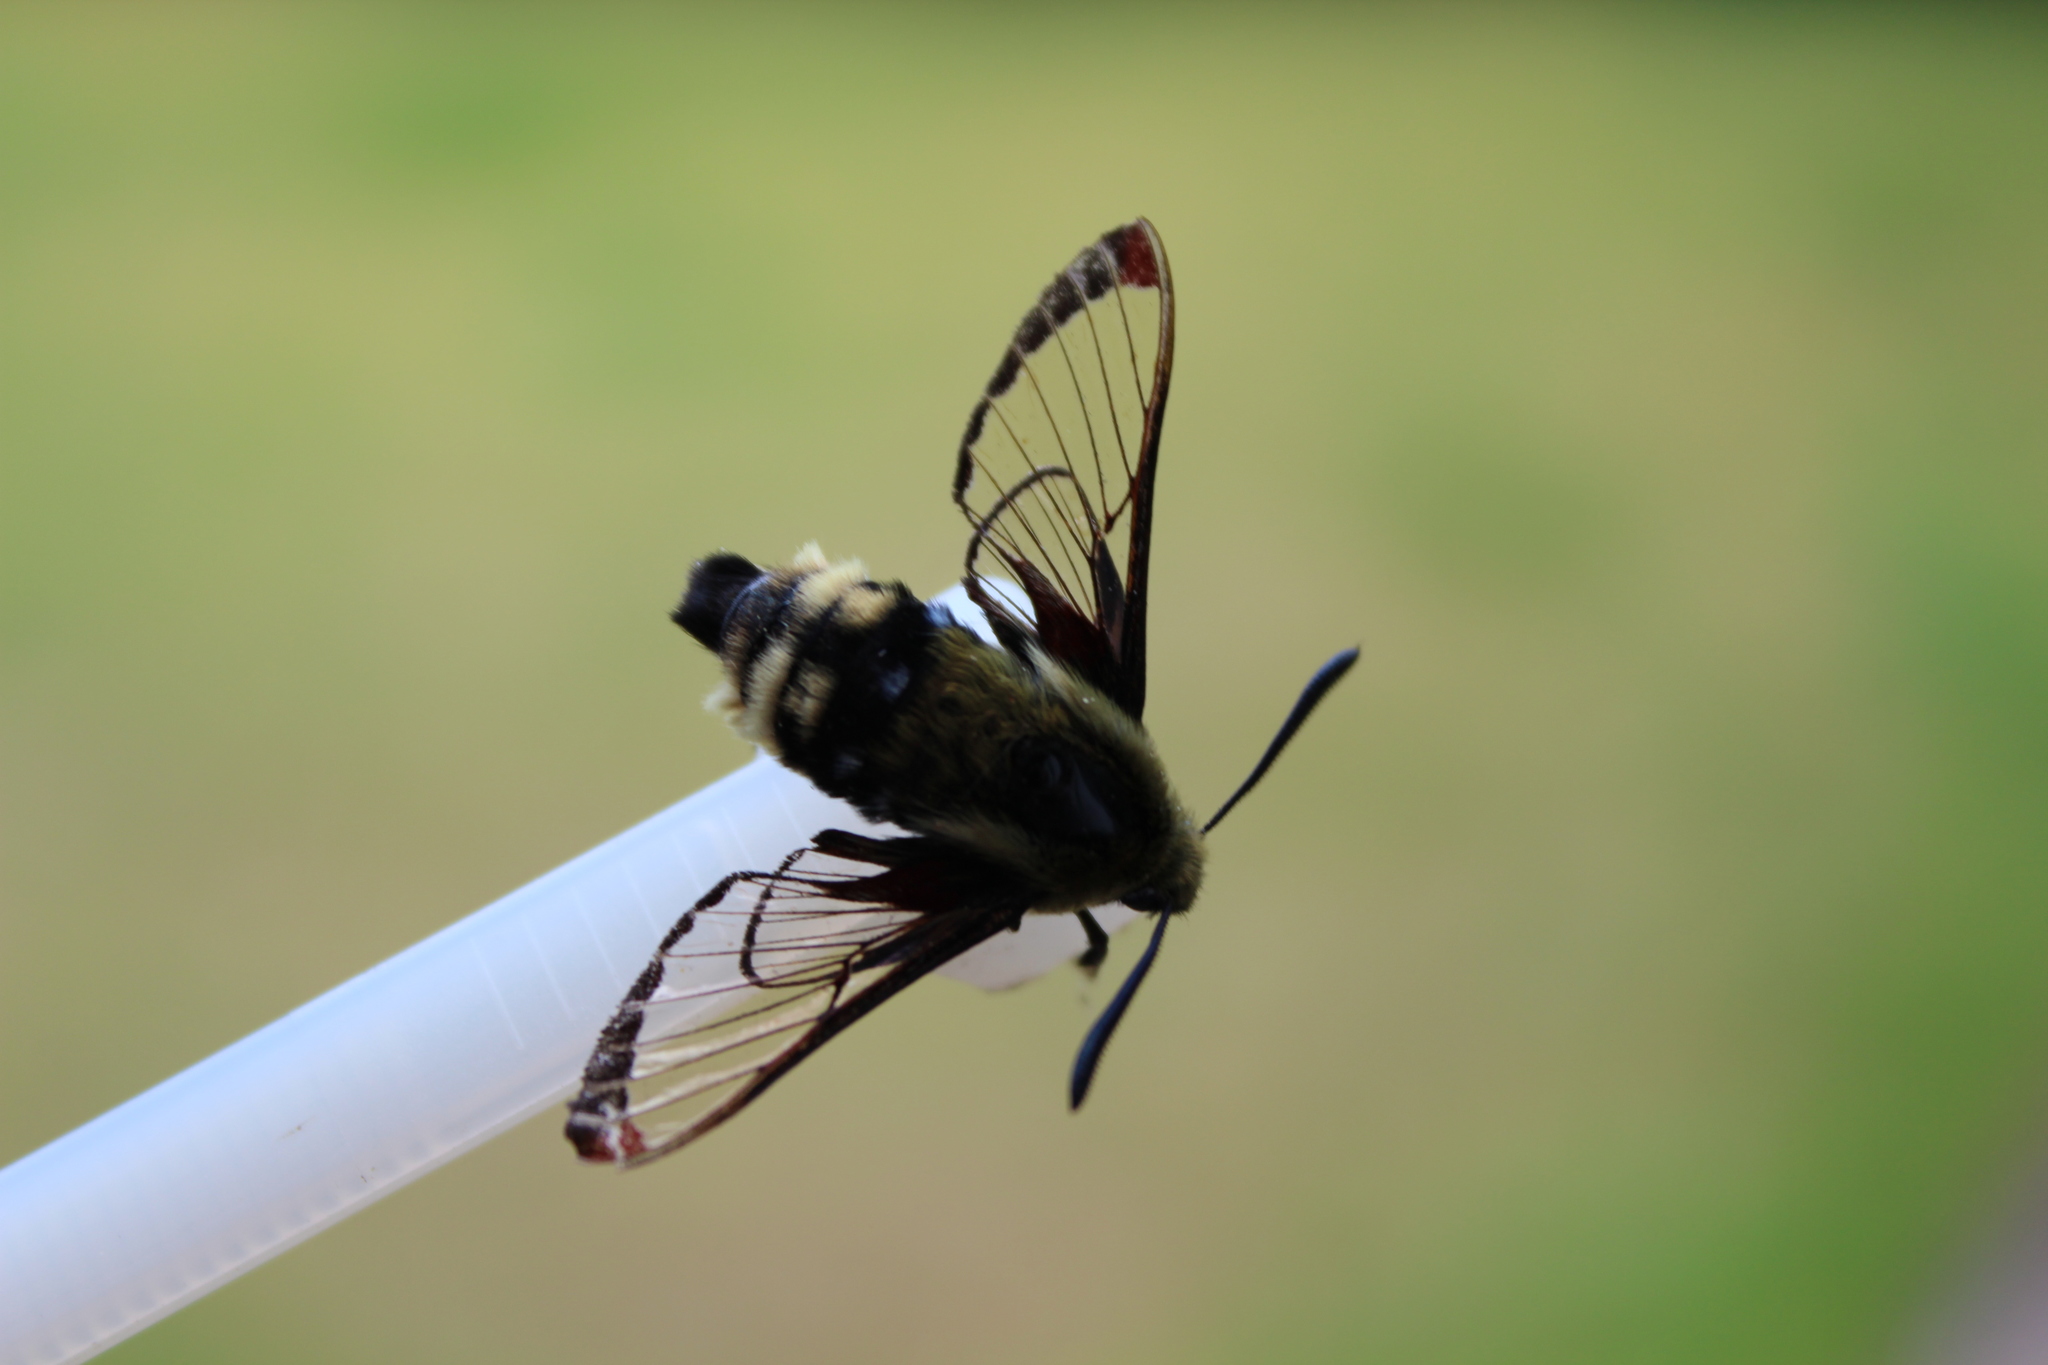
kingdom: Animalia
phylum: Arthropoda
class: Insecta
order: Lepidoptera
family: Sphingidae
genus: Hemaris
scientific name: Hemaris thetis
